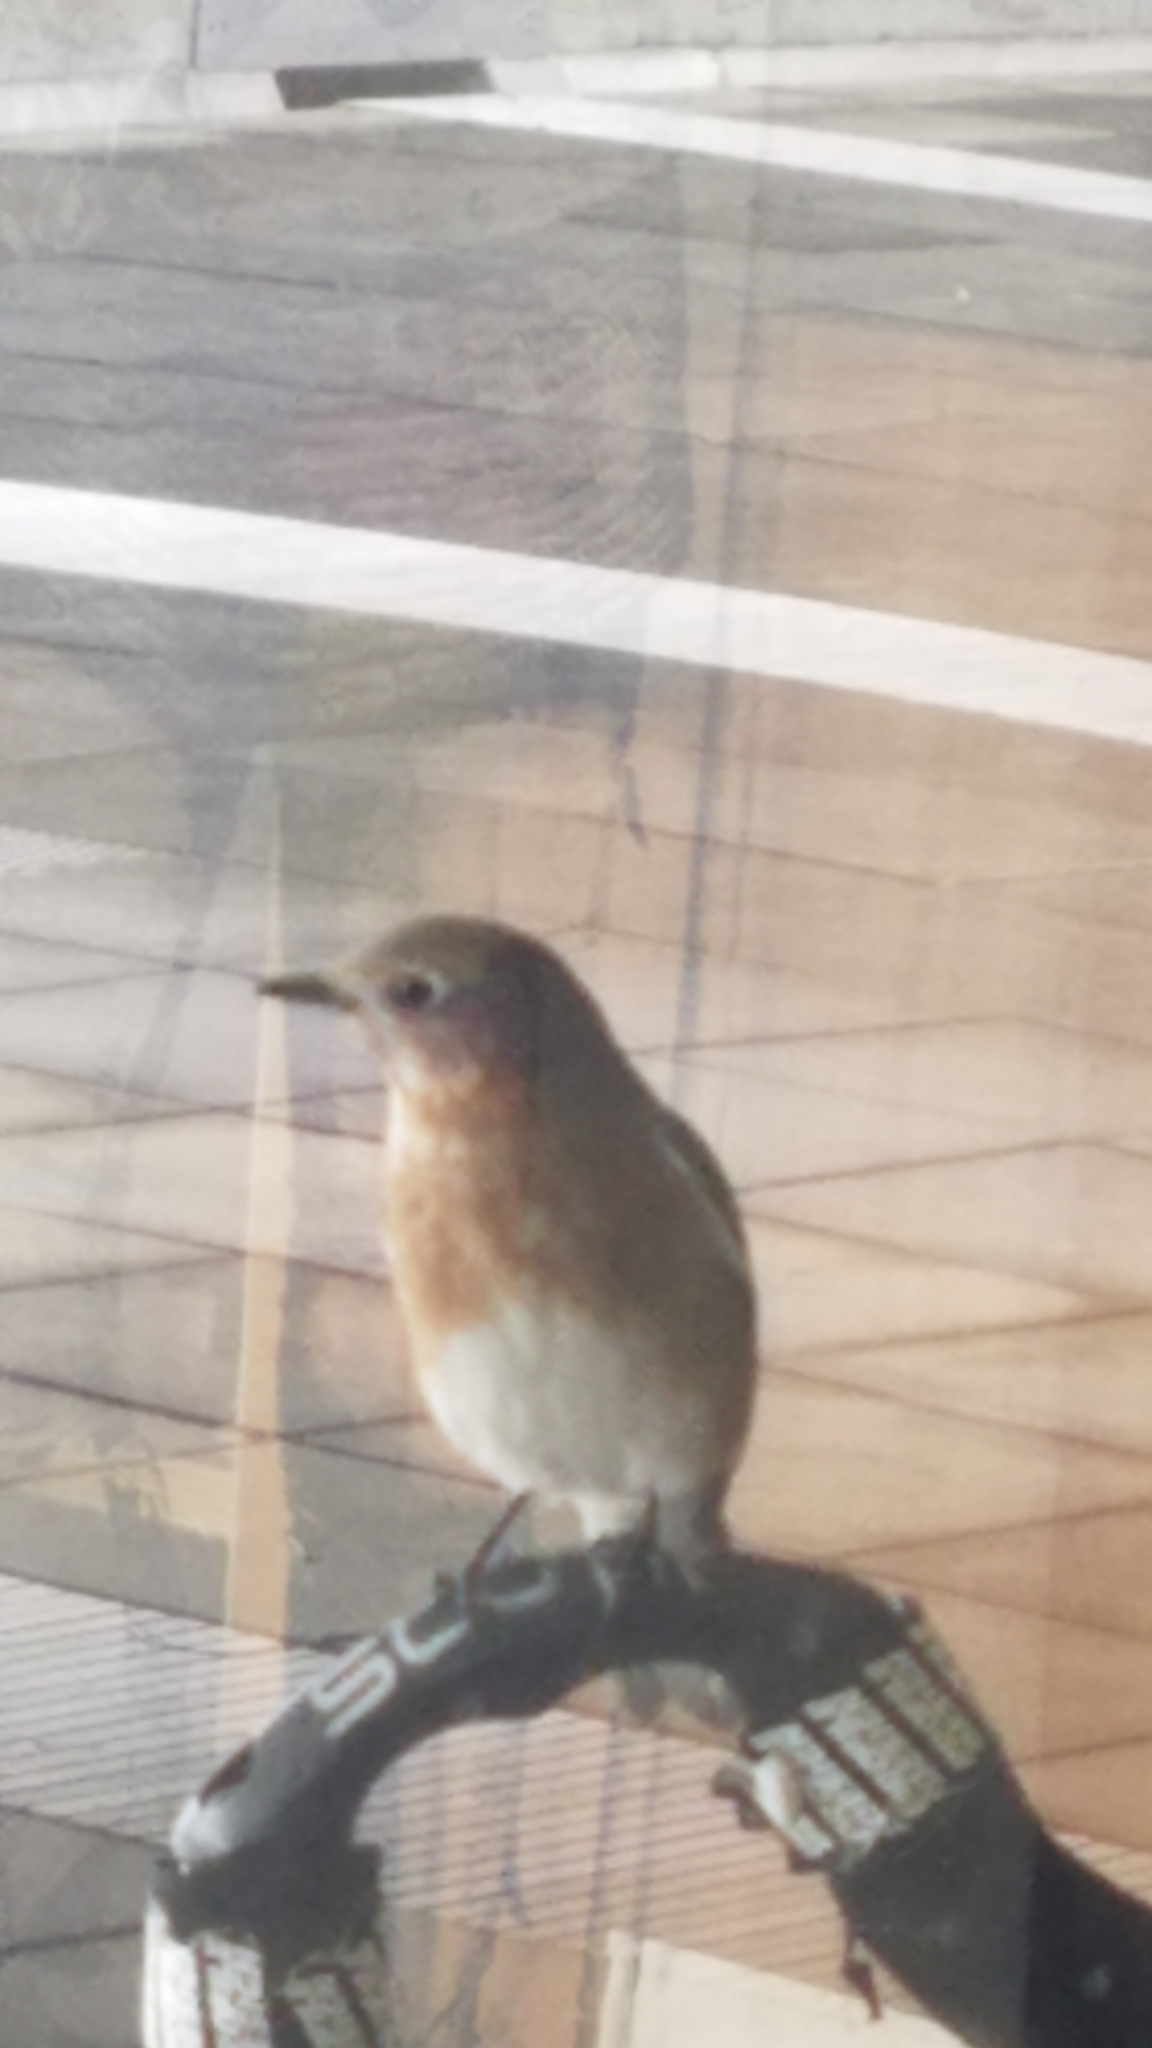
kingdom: Animalia
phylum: Chordata
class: Aves
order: Passeriformes
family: Turdidae
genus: Sialia
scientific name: Sialia sialis
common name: Eastern bluebird
